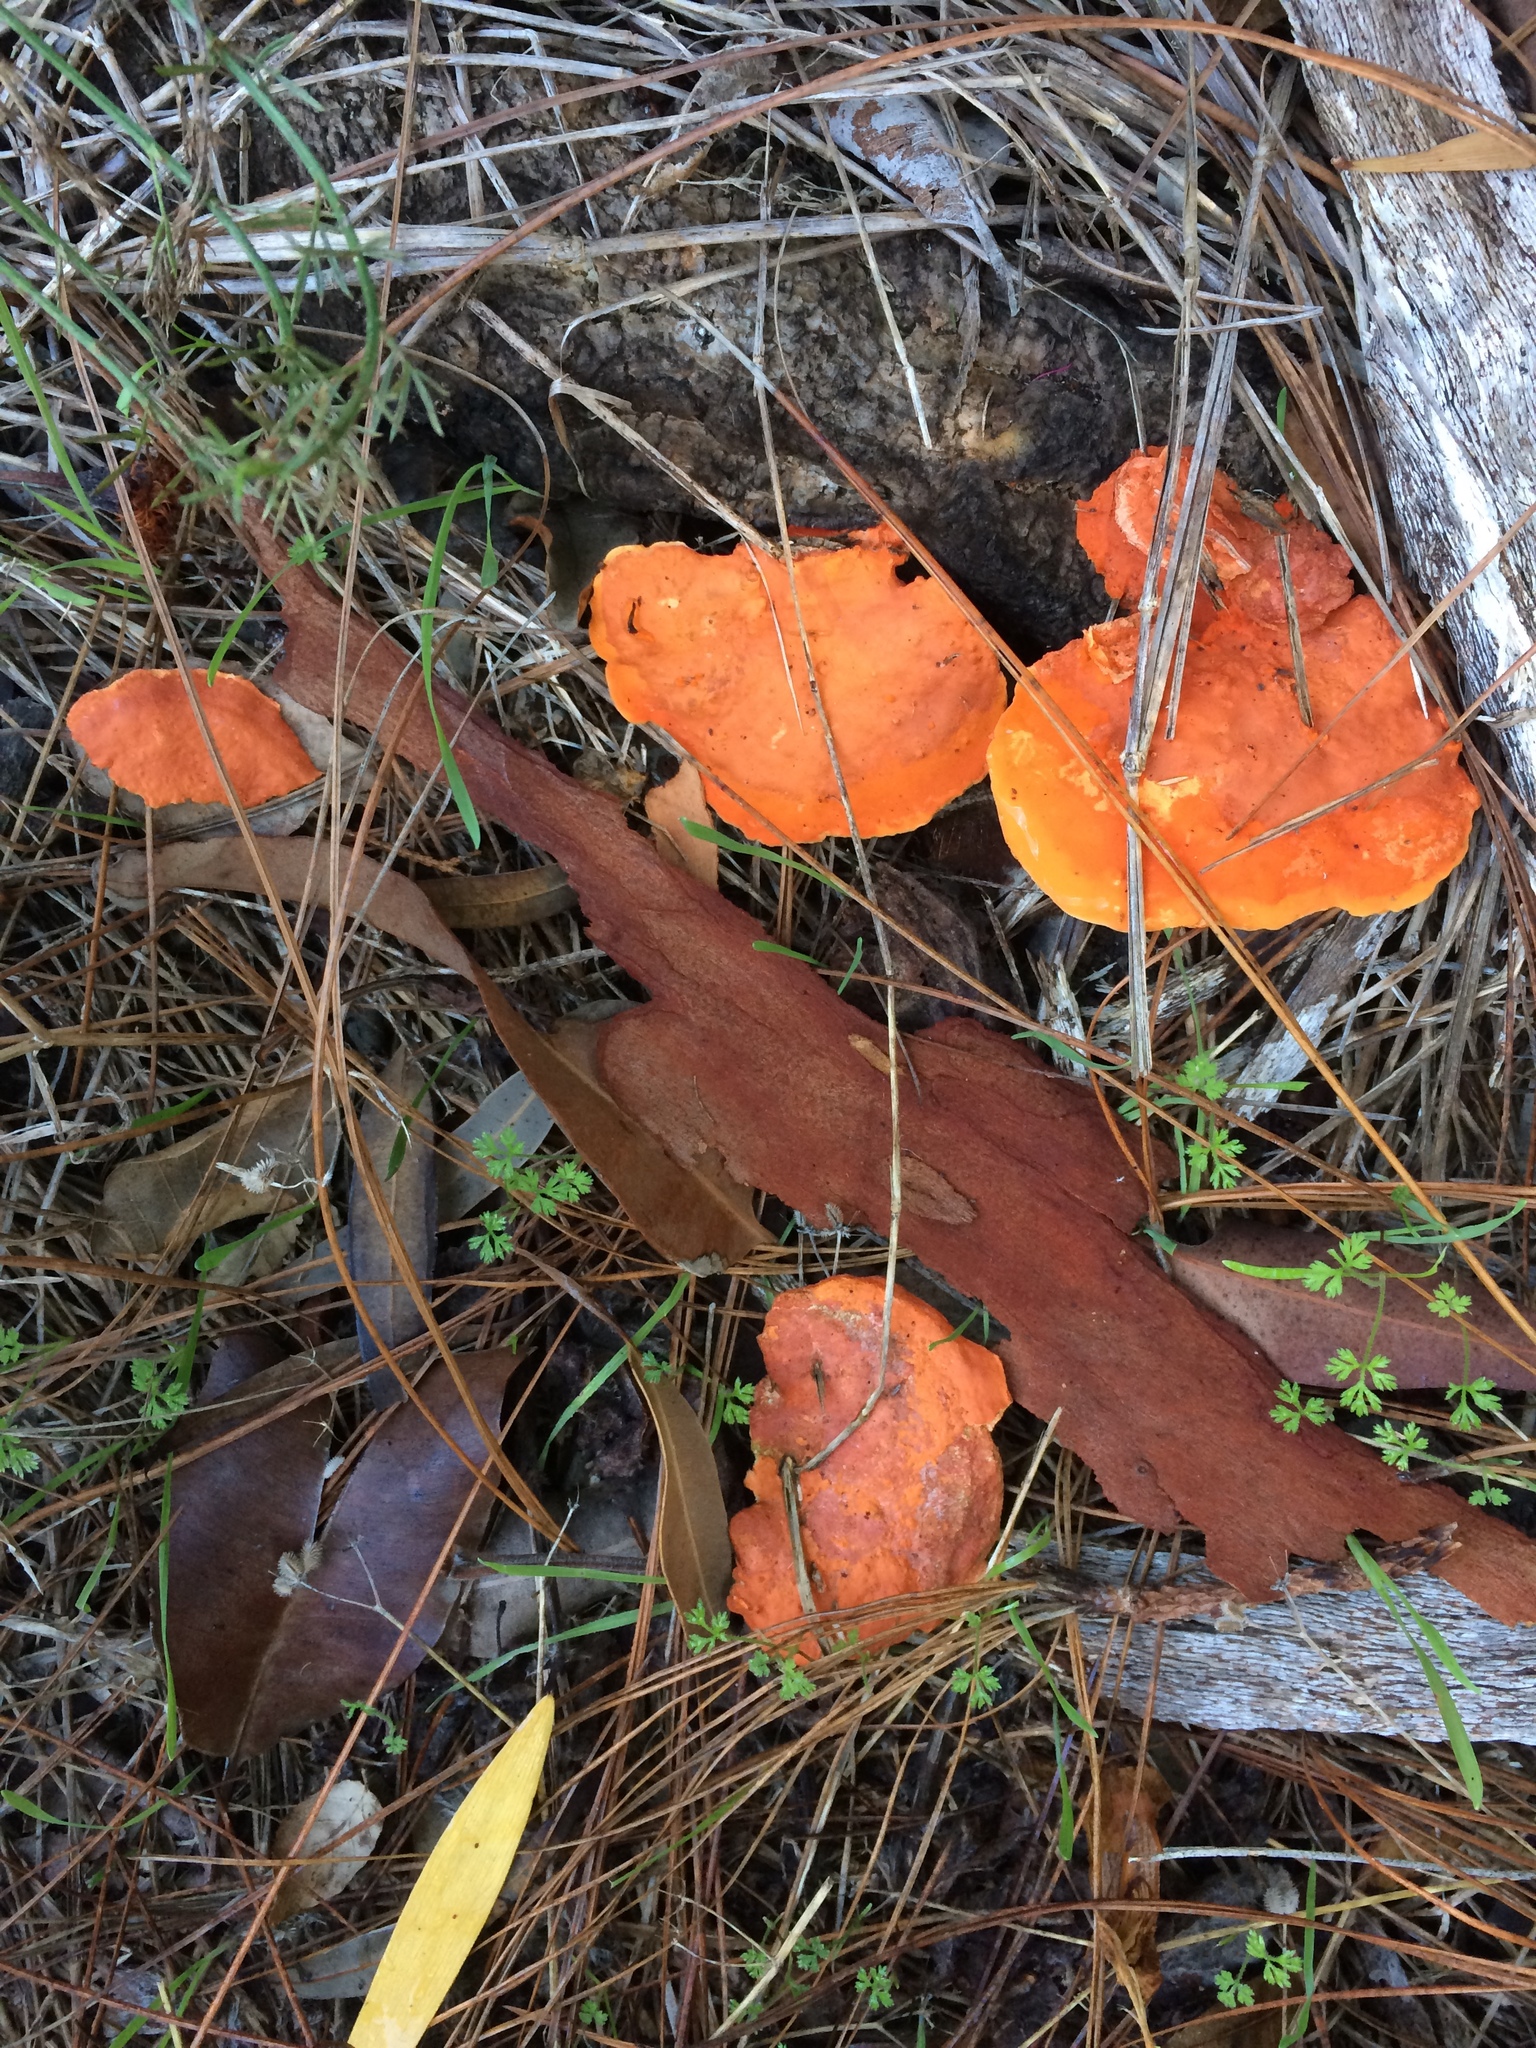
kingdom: Fungi
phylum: Basidiomycota
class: Agaricomycetes
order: Polyporales
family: Polyporaceae
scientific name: Polyporaceae
